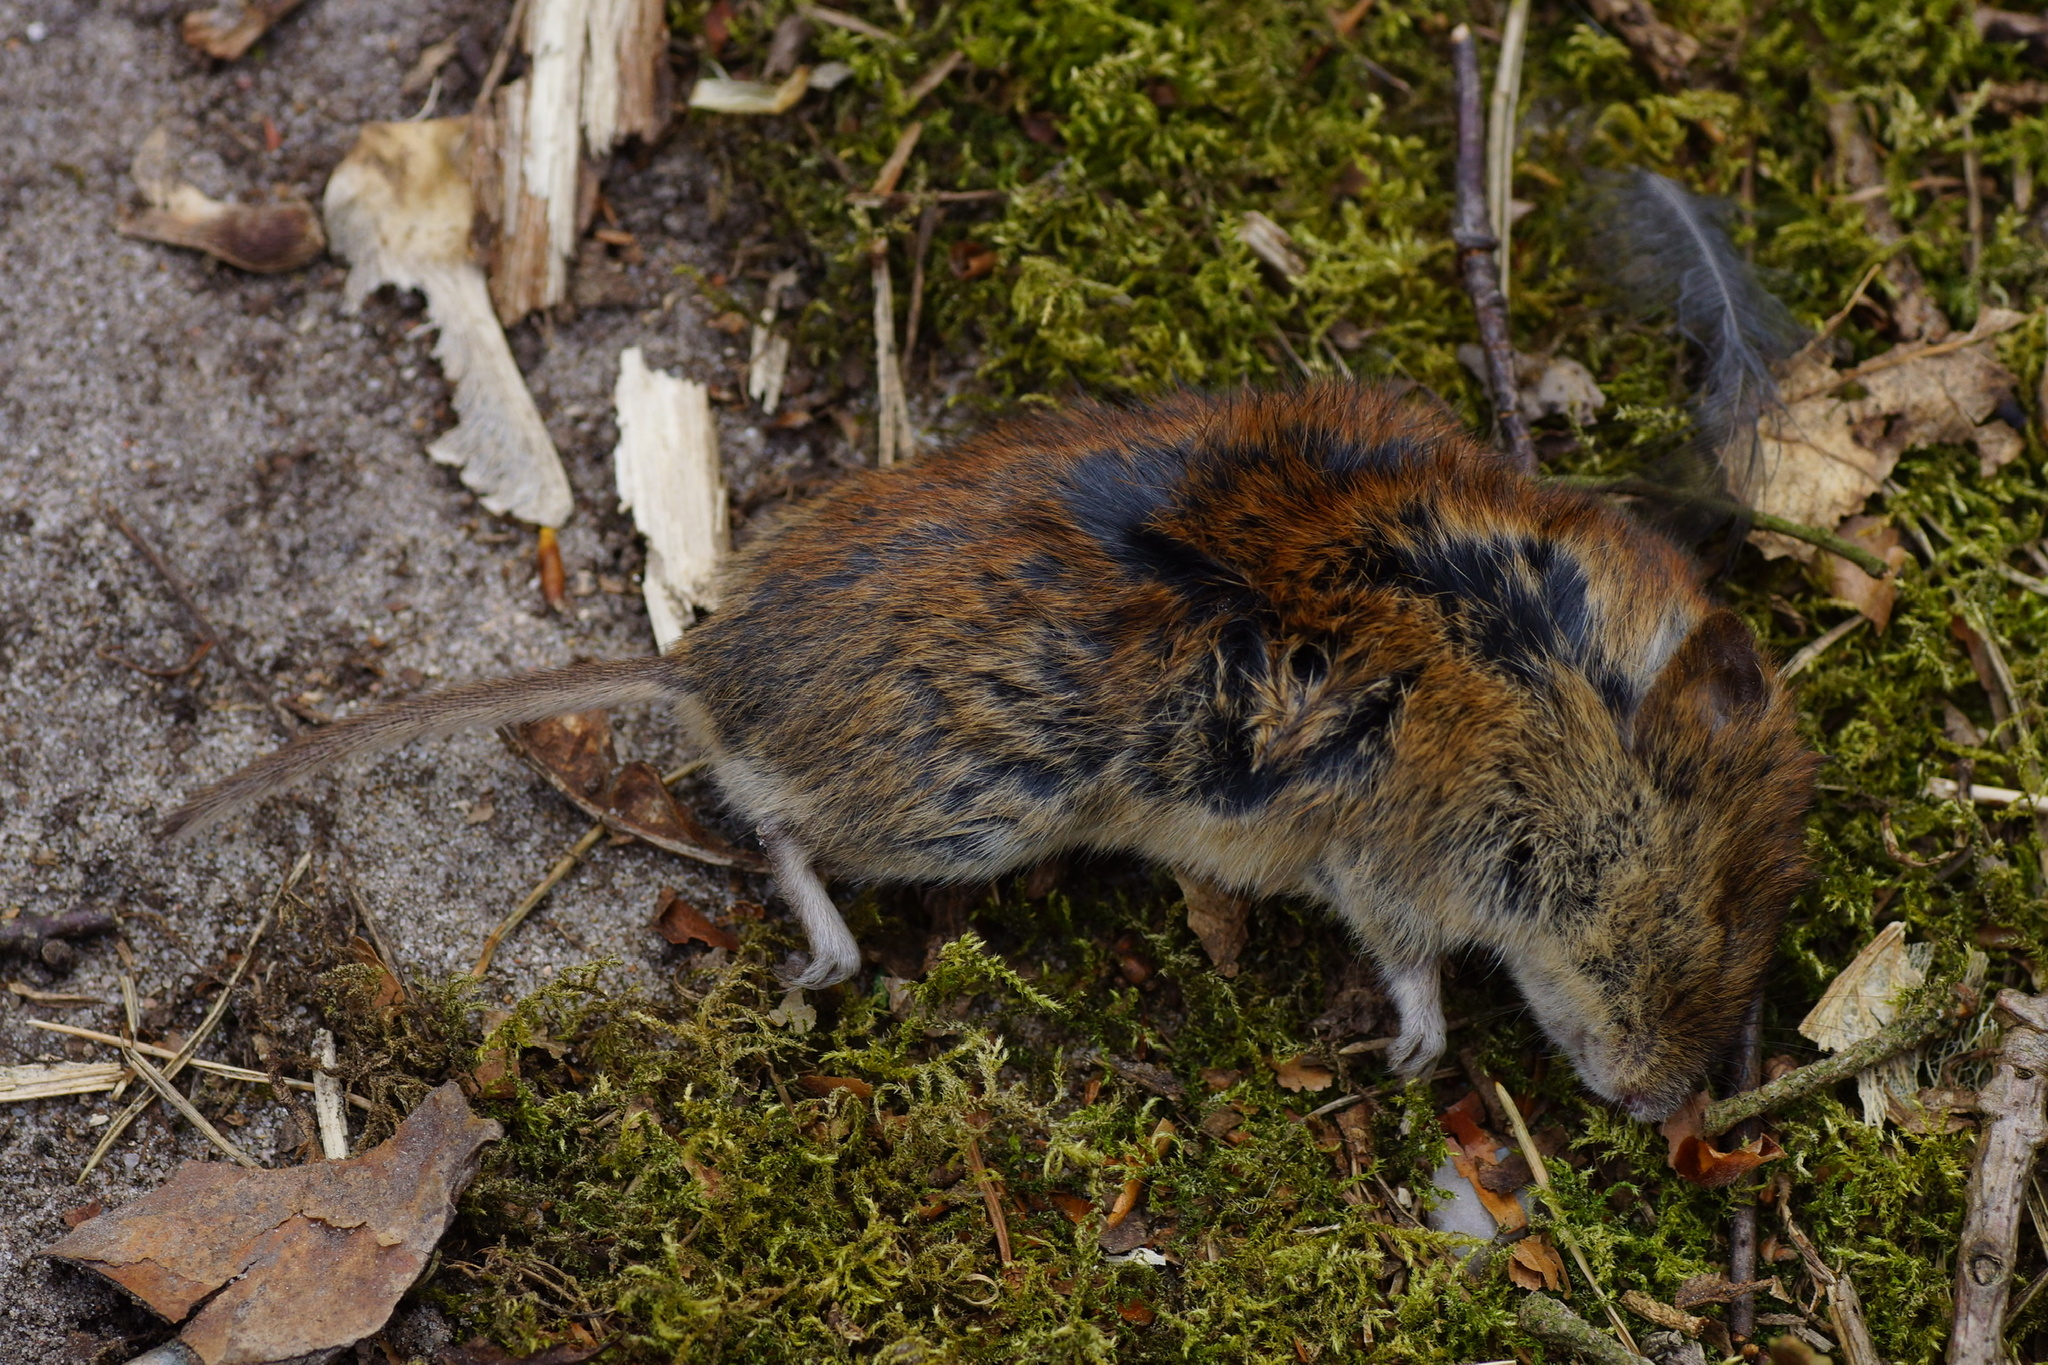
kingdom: Animalia
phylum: Chordata
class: Mammalia
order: Rodentia
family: Cricetidae
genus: Myodes
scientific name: Myodes glareolus
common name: Bank vole
